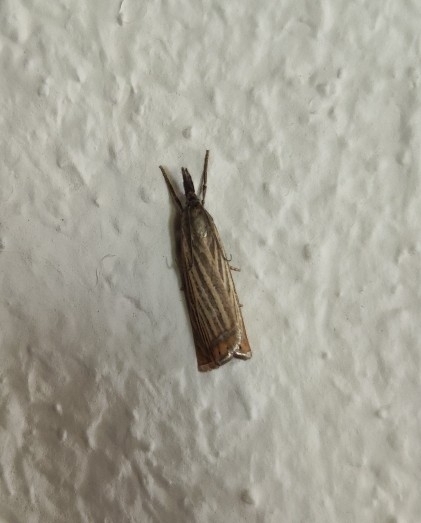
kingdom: Animalia
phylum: Arthropoda
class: Insecta
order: Lepidoptera
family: Crambidae
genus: Chrysoteuchia
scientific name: Chrysoteuchia culmella
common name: Garden grass-veneer
